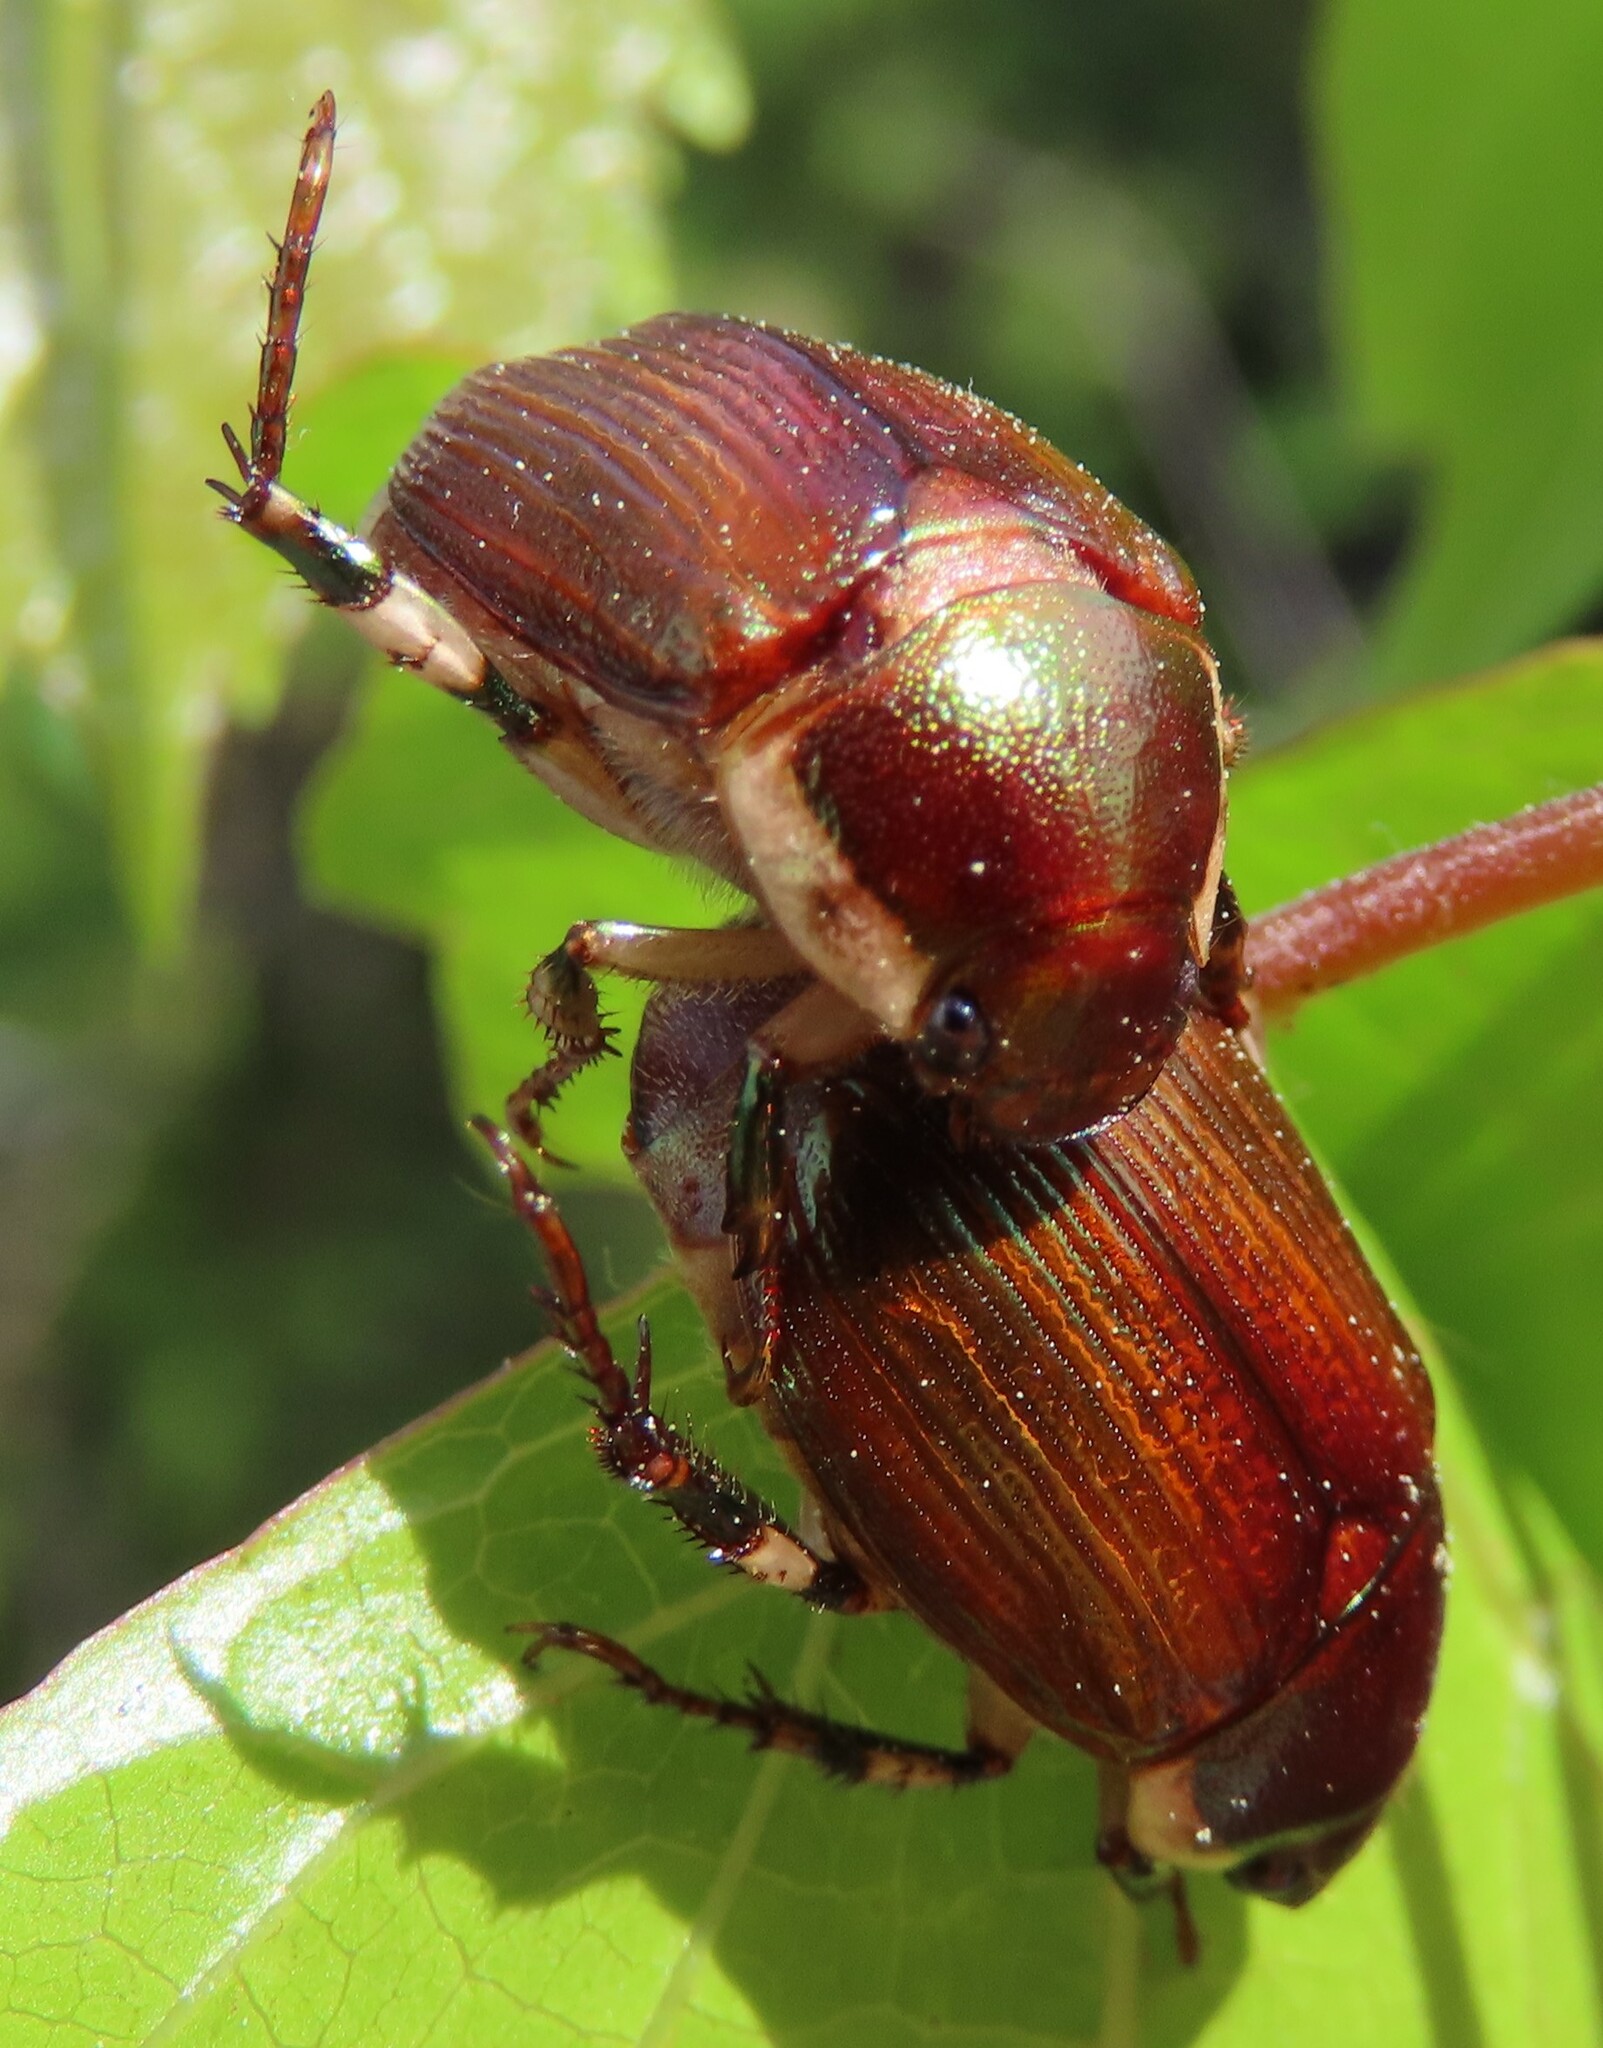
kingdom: Animalia
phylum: Arthropoda
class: Insecta
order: Coleoptera
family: Scarabaeidae
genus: Callistethus
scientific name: Callistethus marginatus
